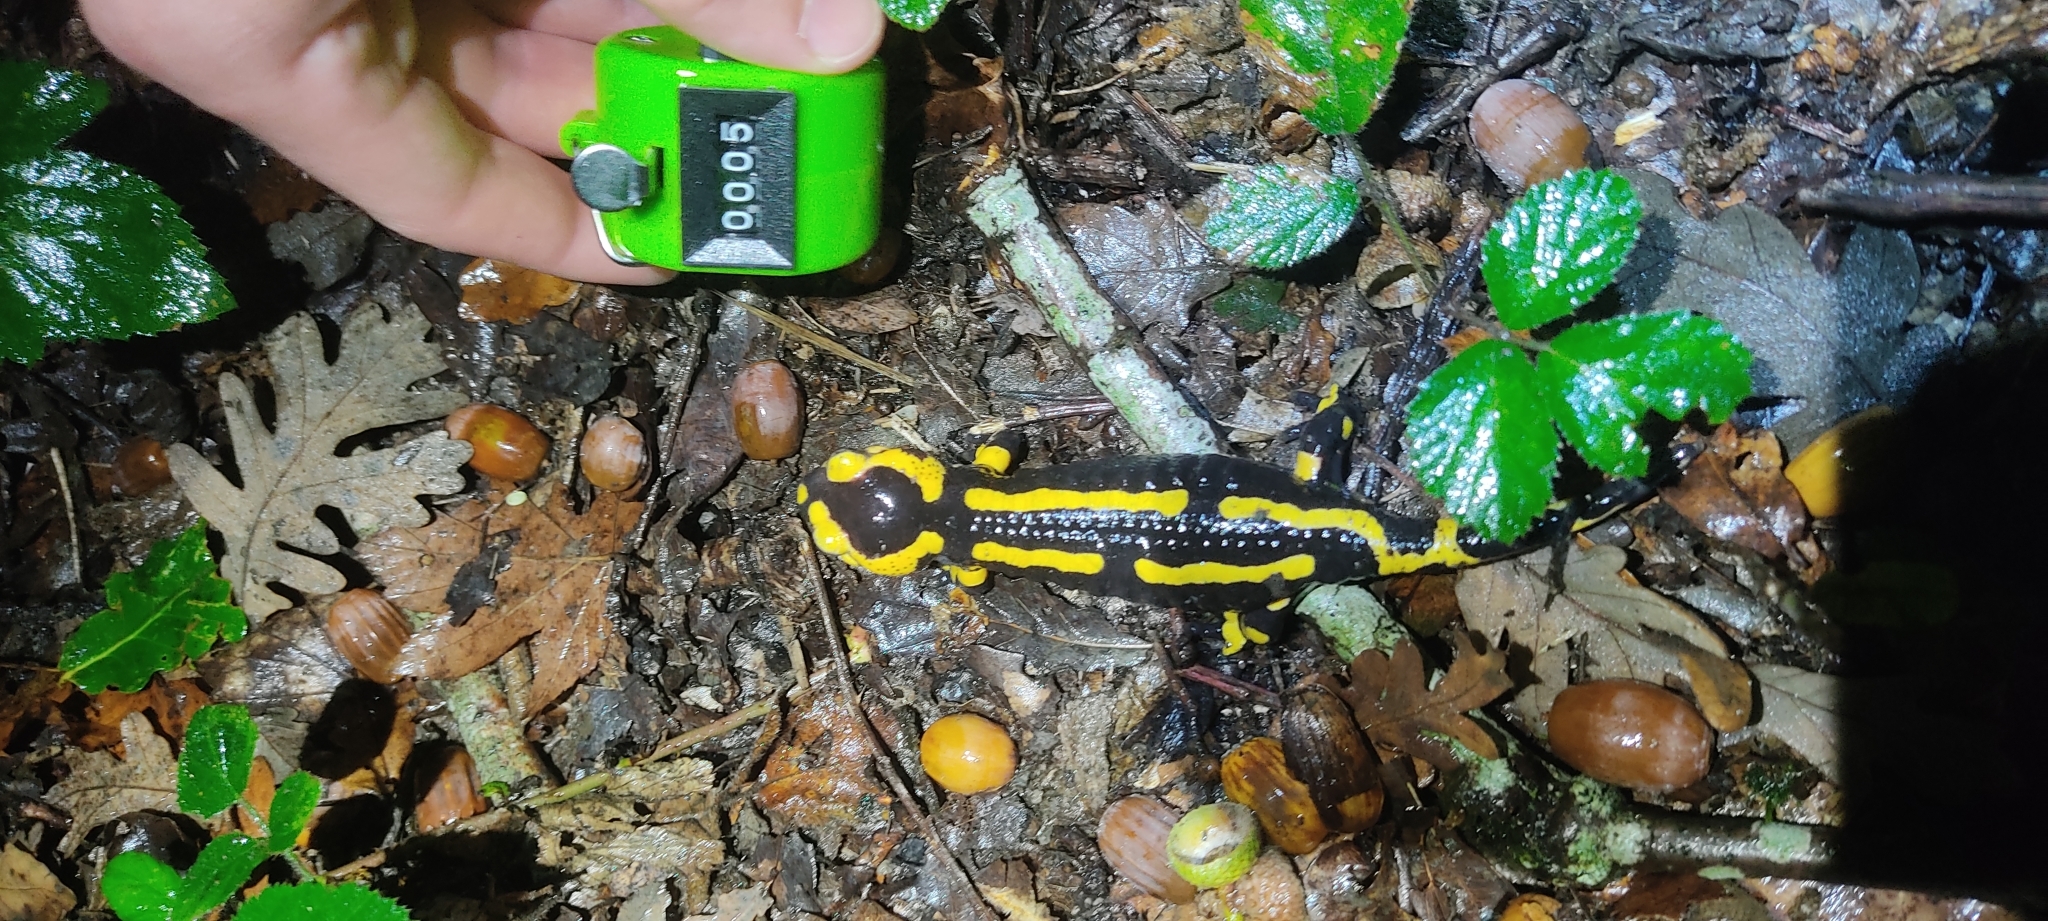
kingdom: Animalia
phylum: Chordata
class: Amphibia
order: Caudata
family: Salamandridae
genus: Salamandra
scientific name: Salamandra salamandra
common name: Fire salamander
